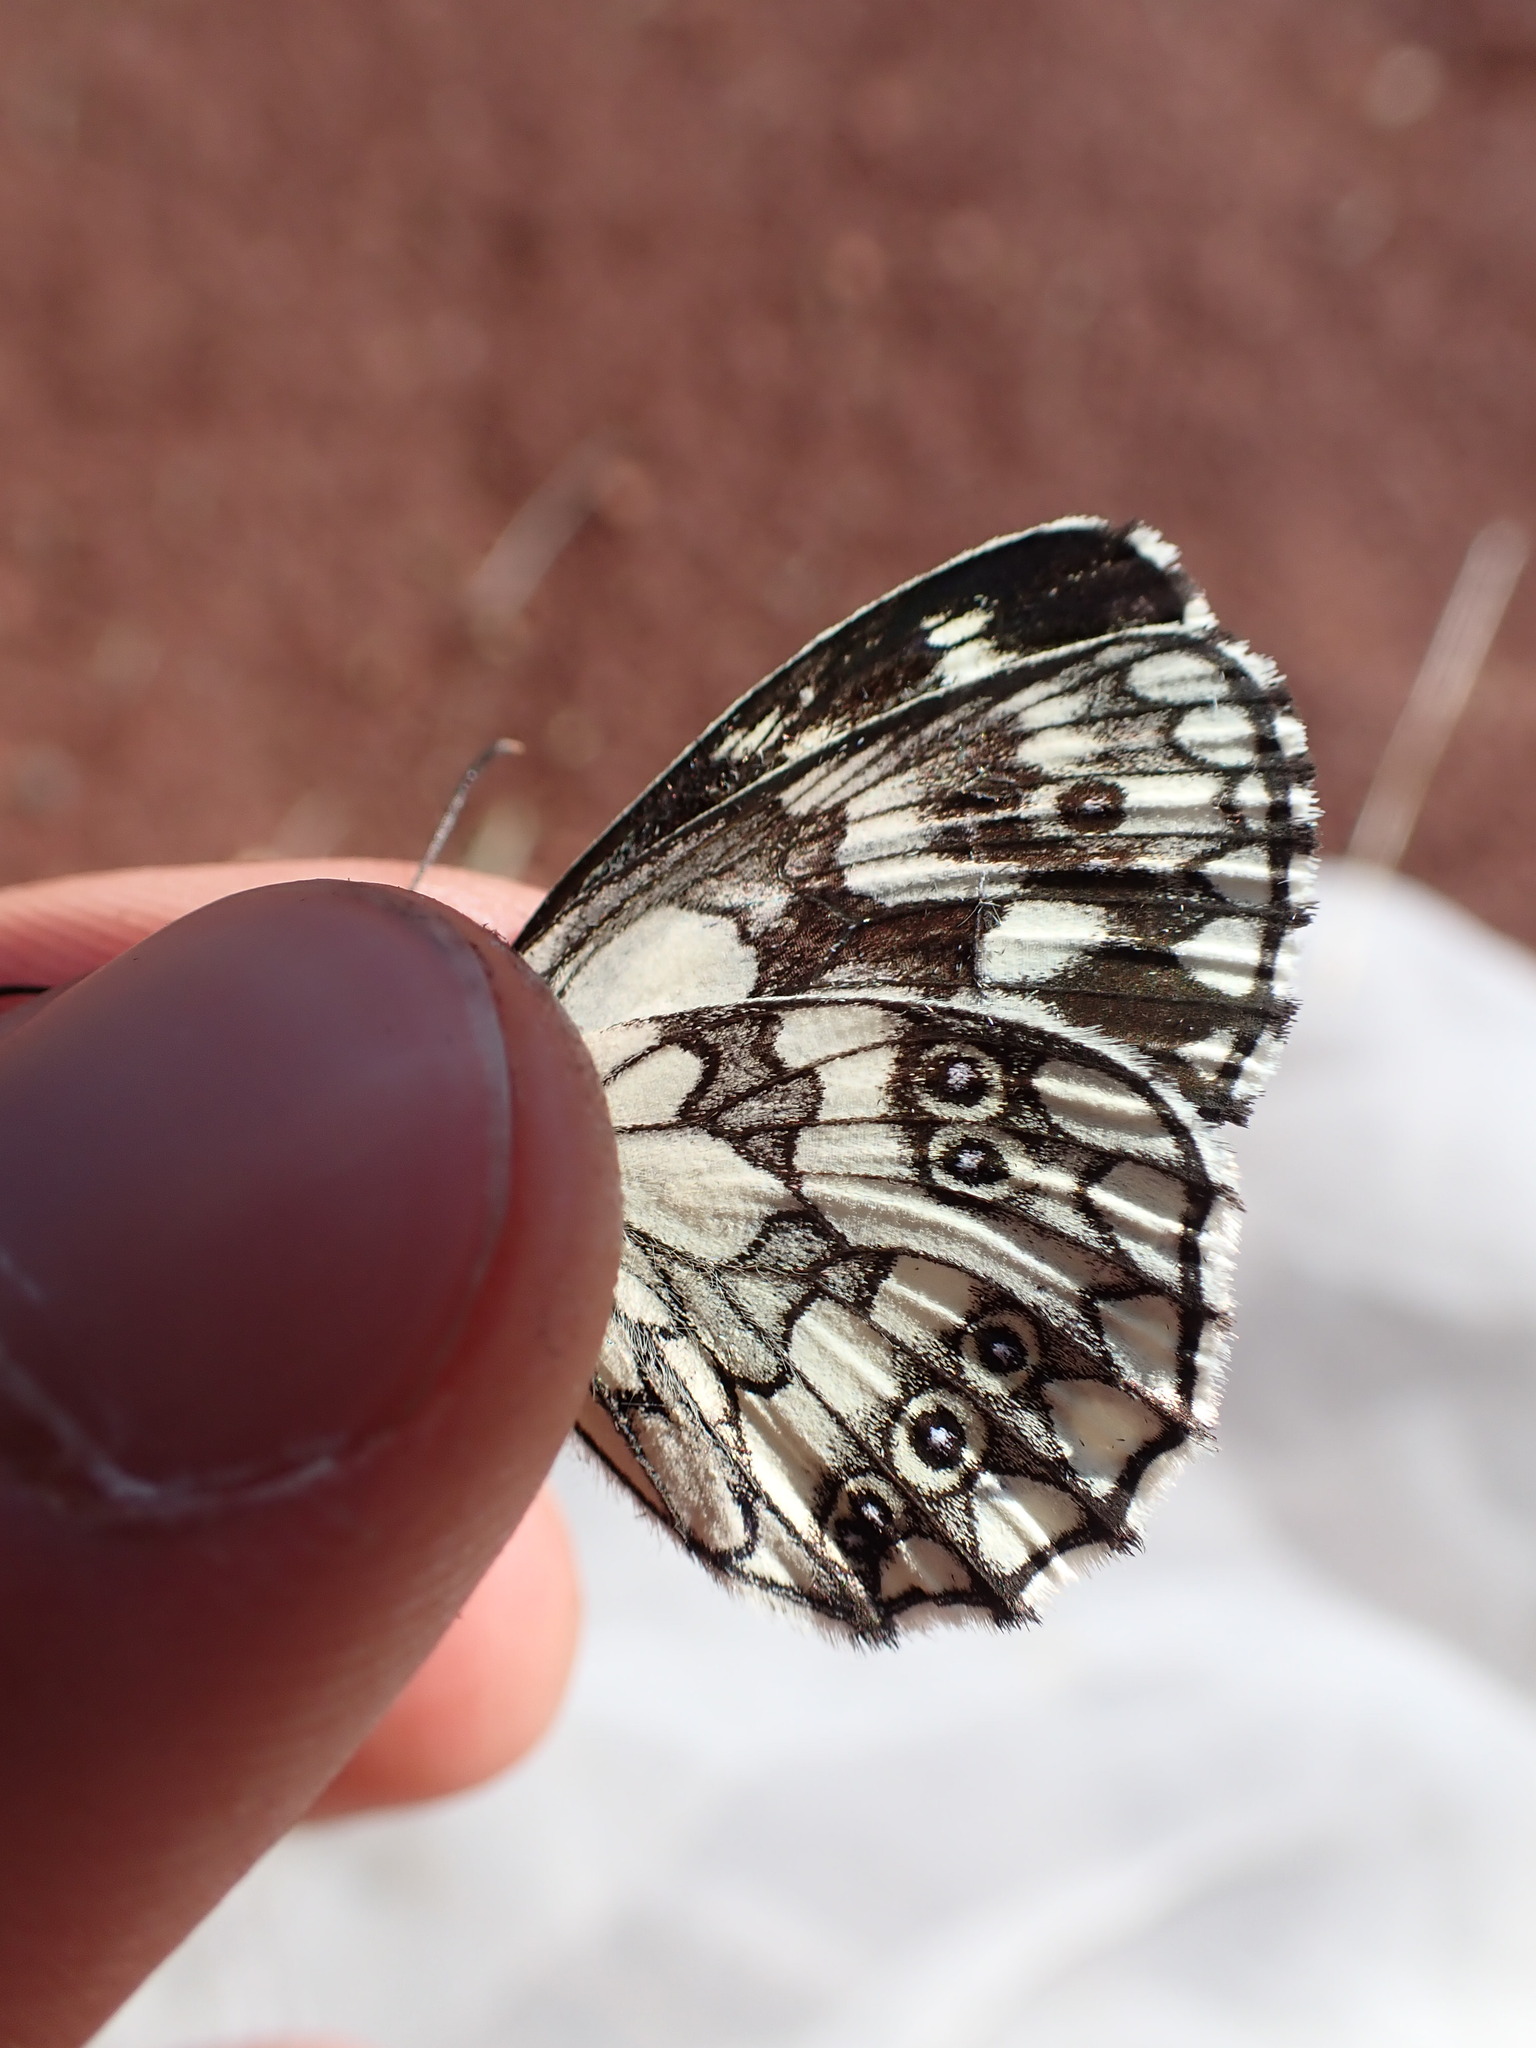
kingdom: Animalia
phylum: Arthropoda
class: Insecta
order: Lepidoptera
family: Nymphalidae
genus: Melanargia
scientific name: Melanargia galathea
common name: Marbled white
